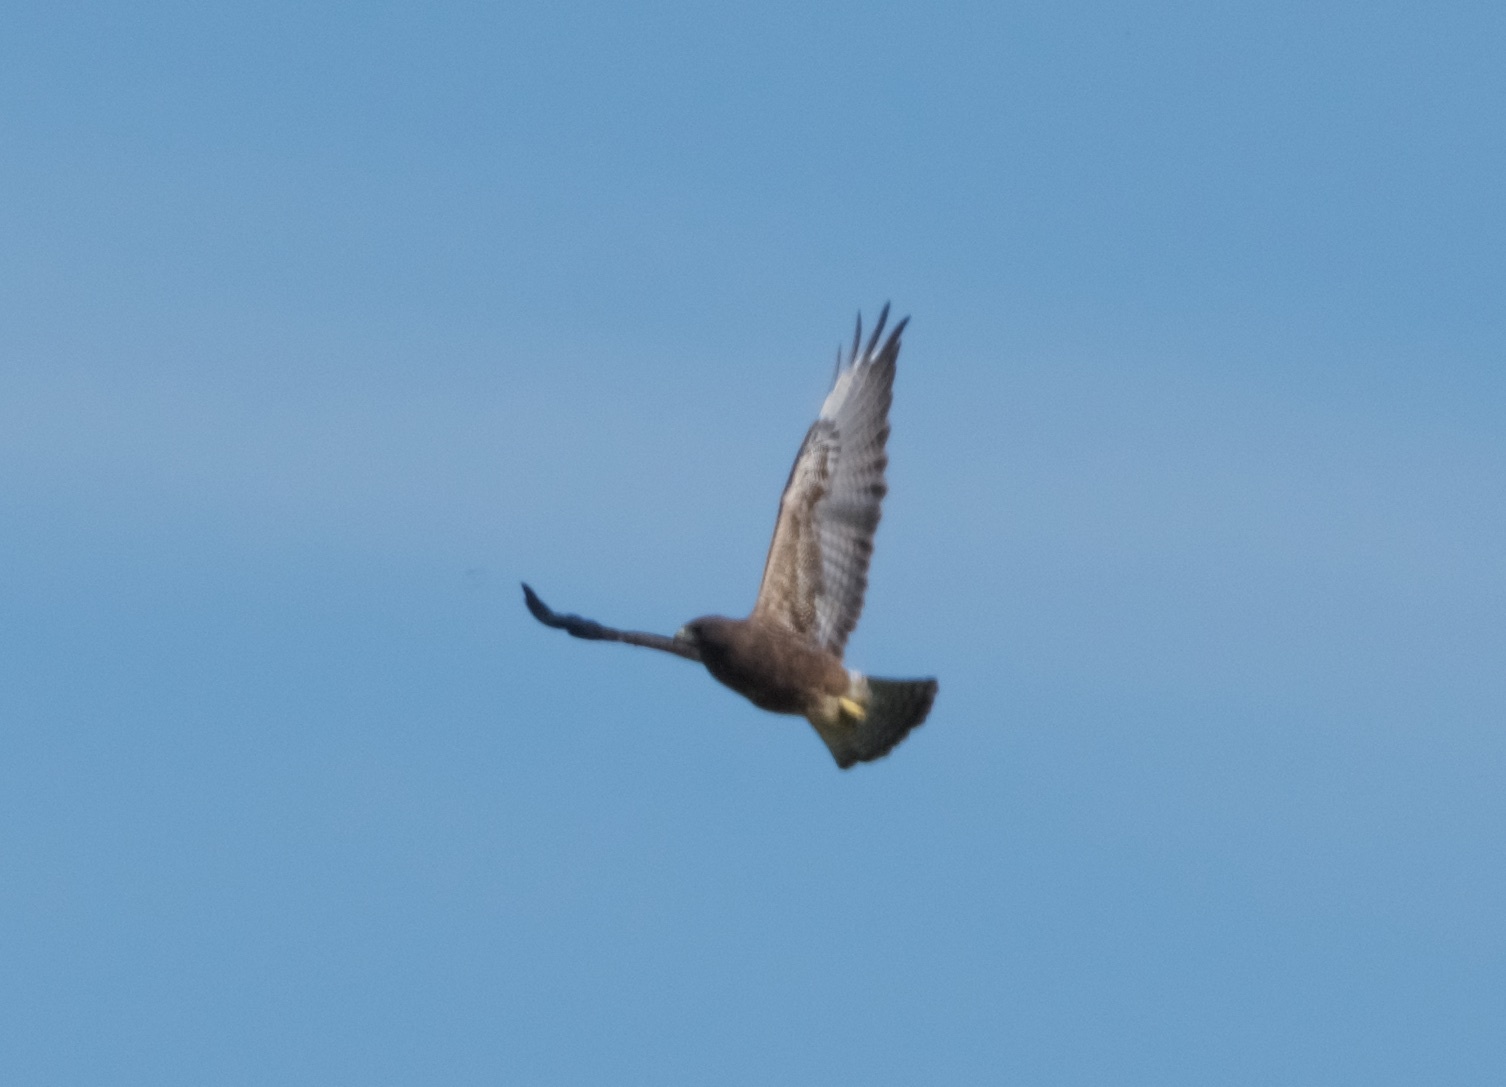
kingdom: Animalia
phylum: Chordata
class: Aves
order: Accipitriformes
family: Accipitridae
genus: Buteo
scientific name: Buteo swainsoni
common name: Swainson's hawk
